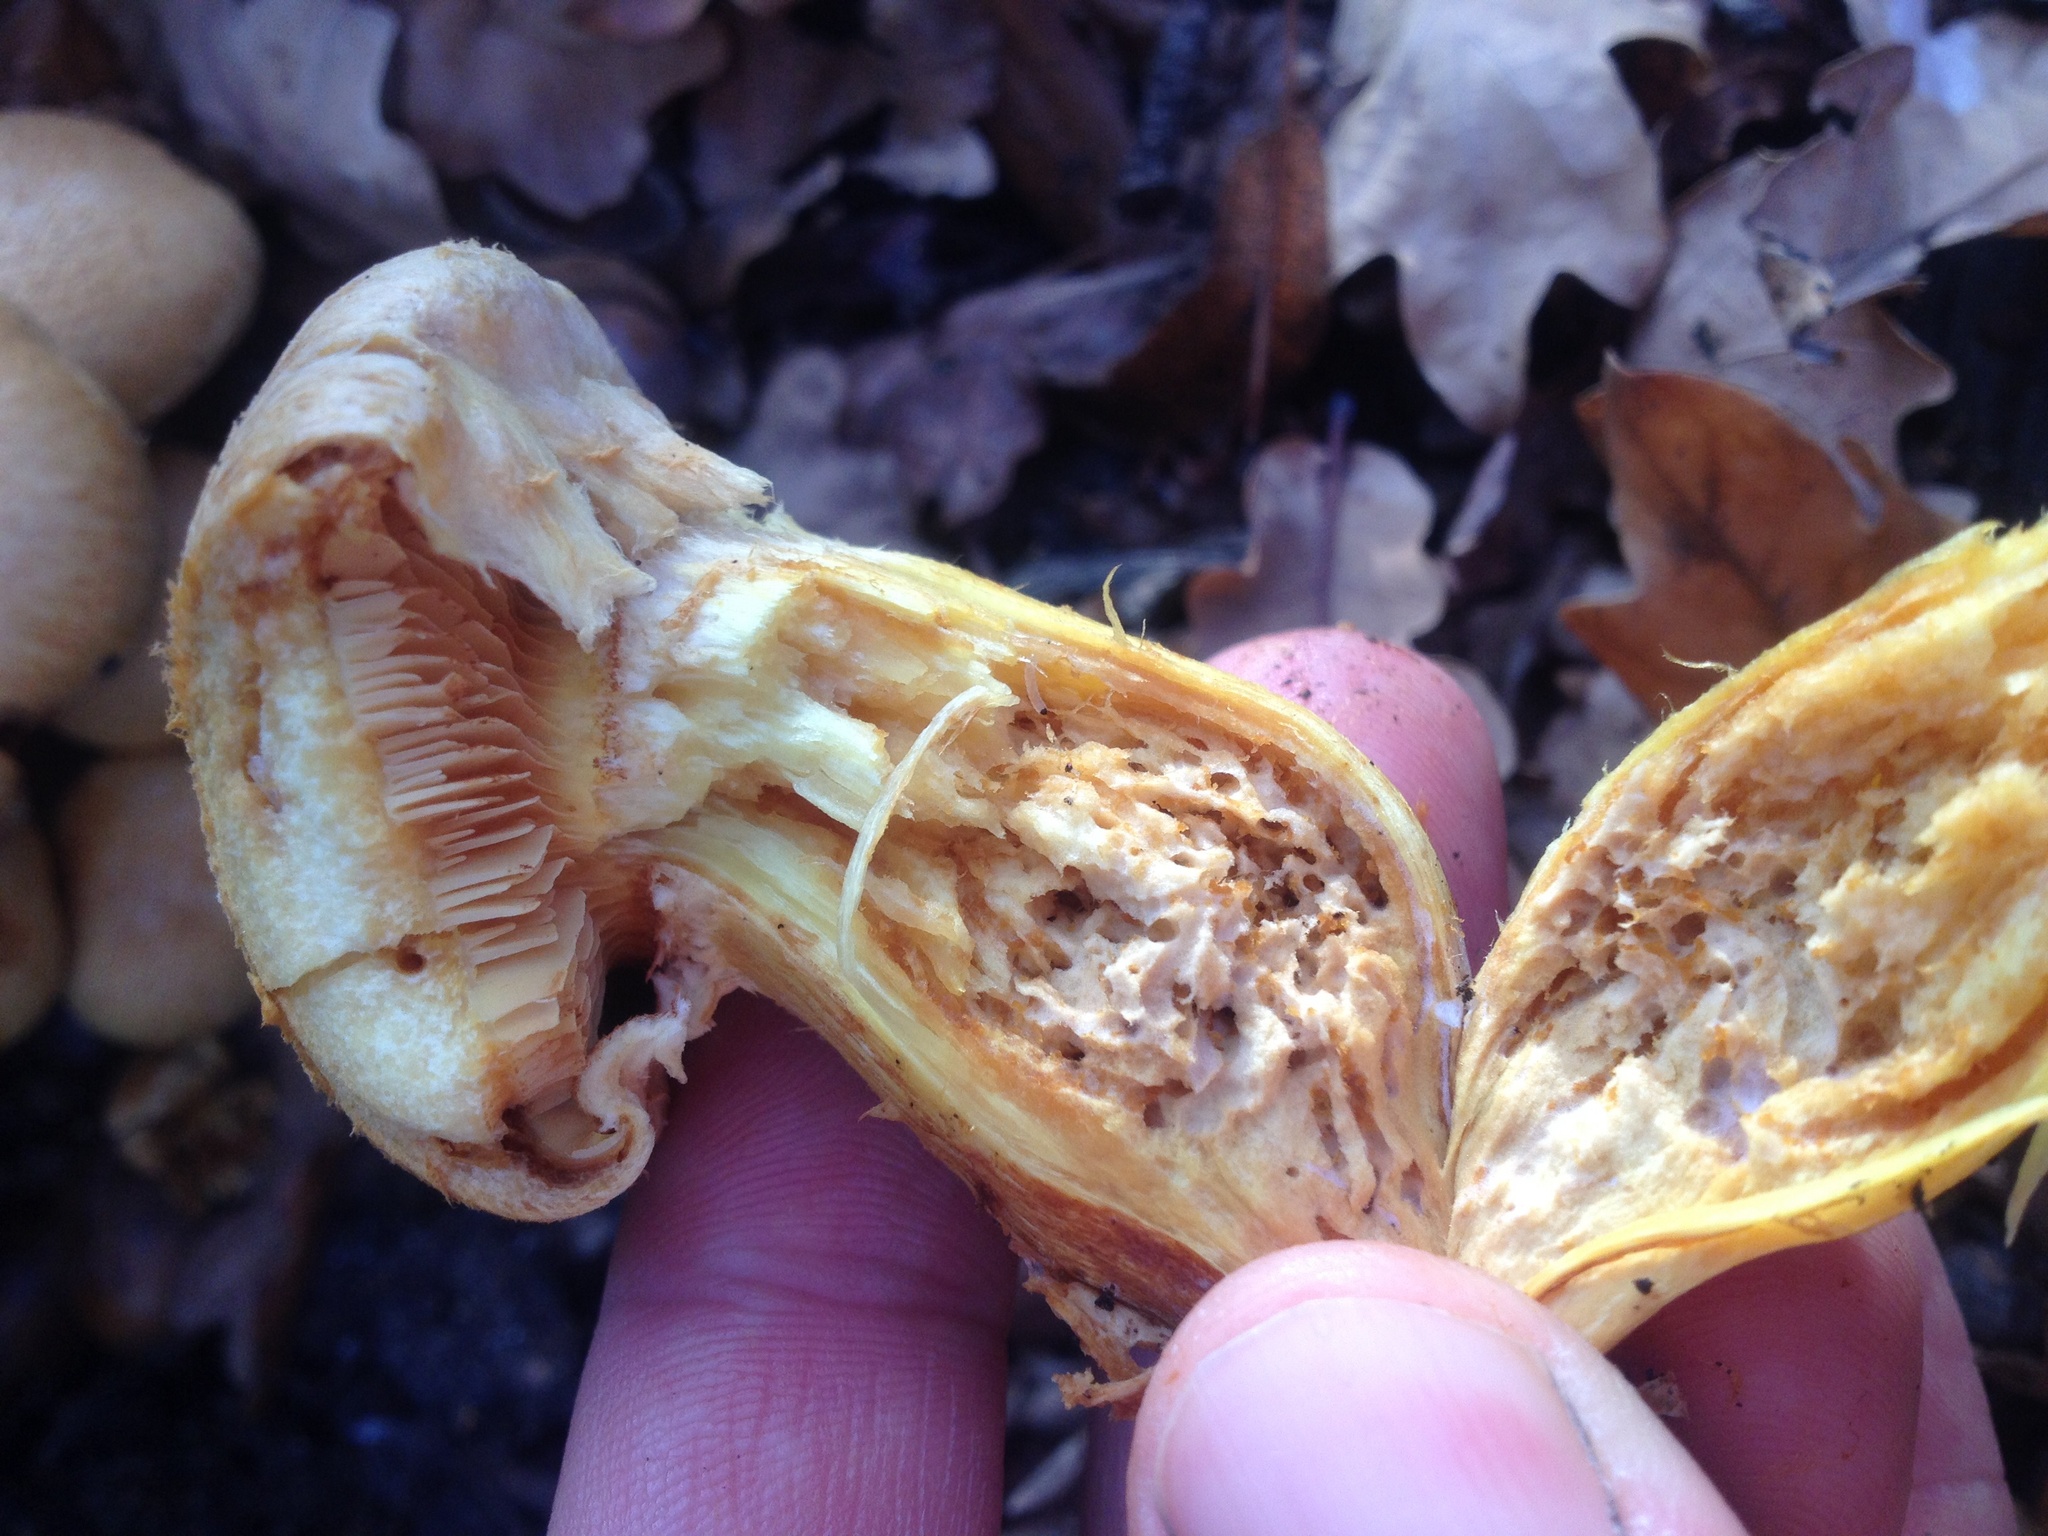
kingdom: Fungi
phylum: Basidiomycota
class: Agaricomycetes
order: Agaricales
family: Hymenogastraceae
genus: Gymnopilus
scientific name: Gymnopilus junonius
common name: Spectacular rustgill
